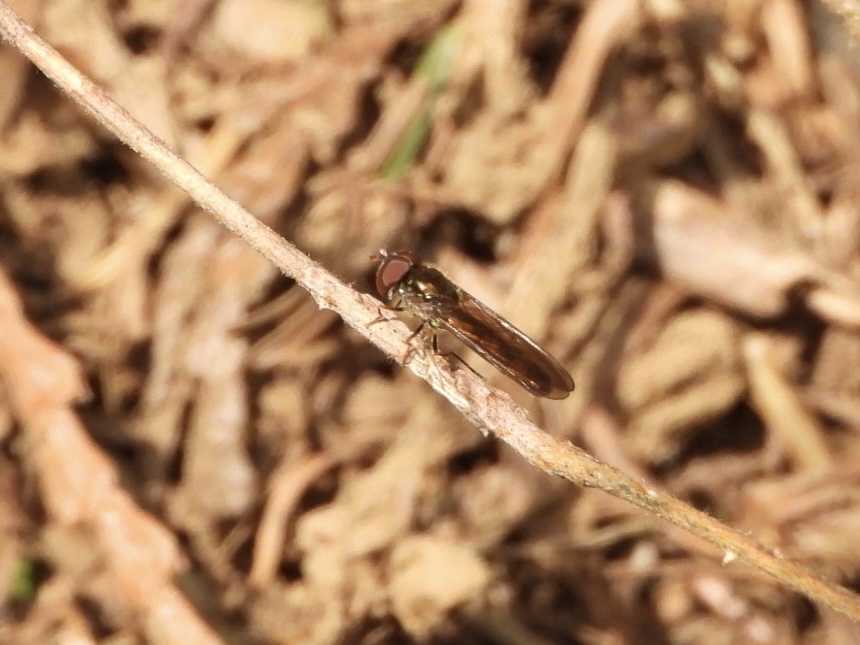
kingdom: Animalia
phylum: Arthropoda
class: Insecta
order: Diptera
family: Syrphidae
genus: Melanostoma
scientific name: Melanostoma mellina
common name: Hover fly
